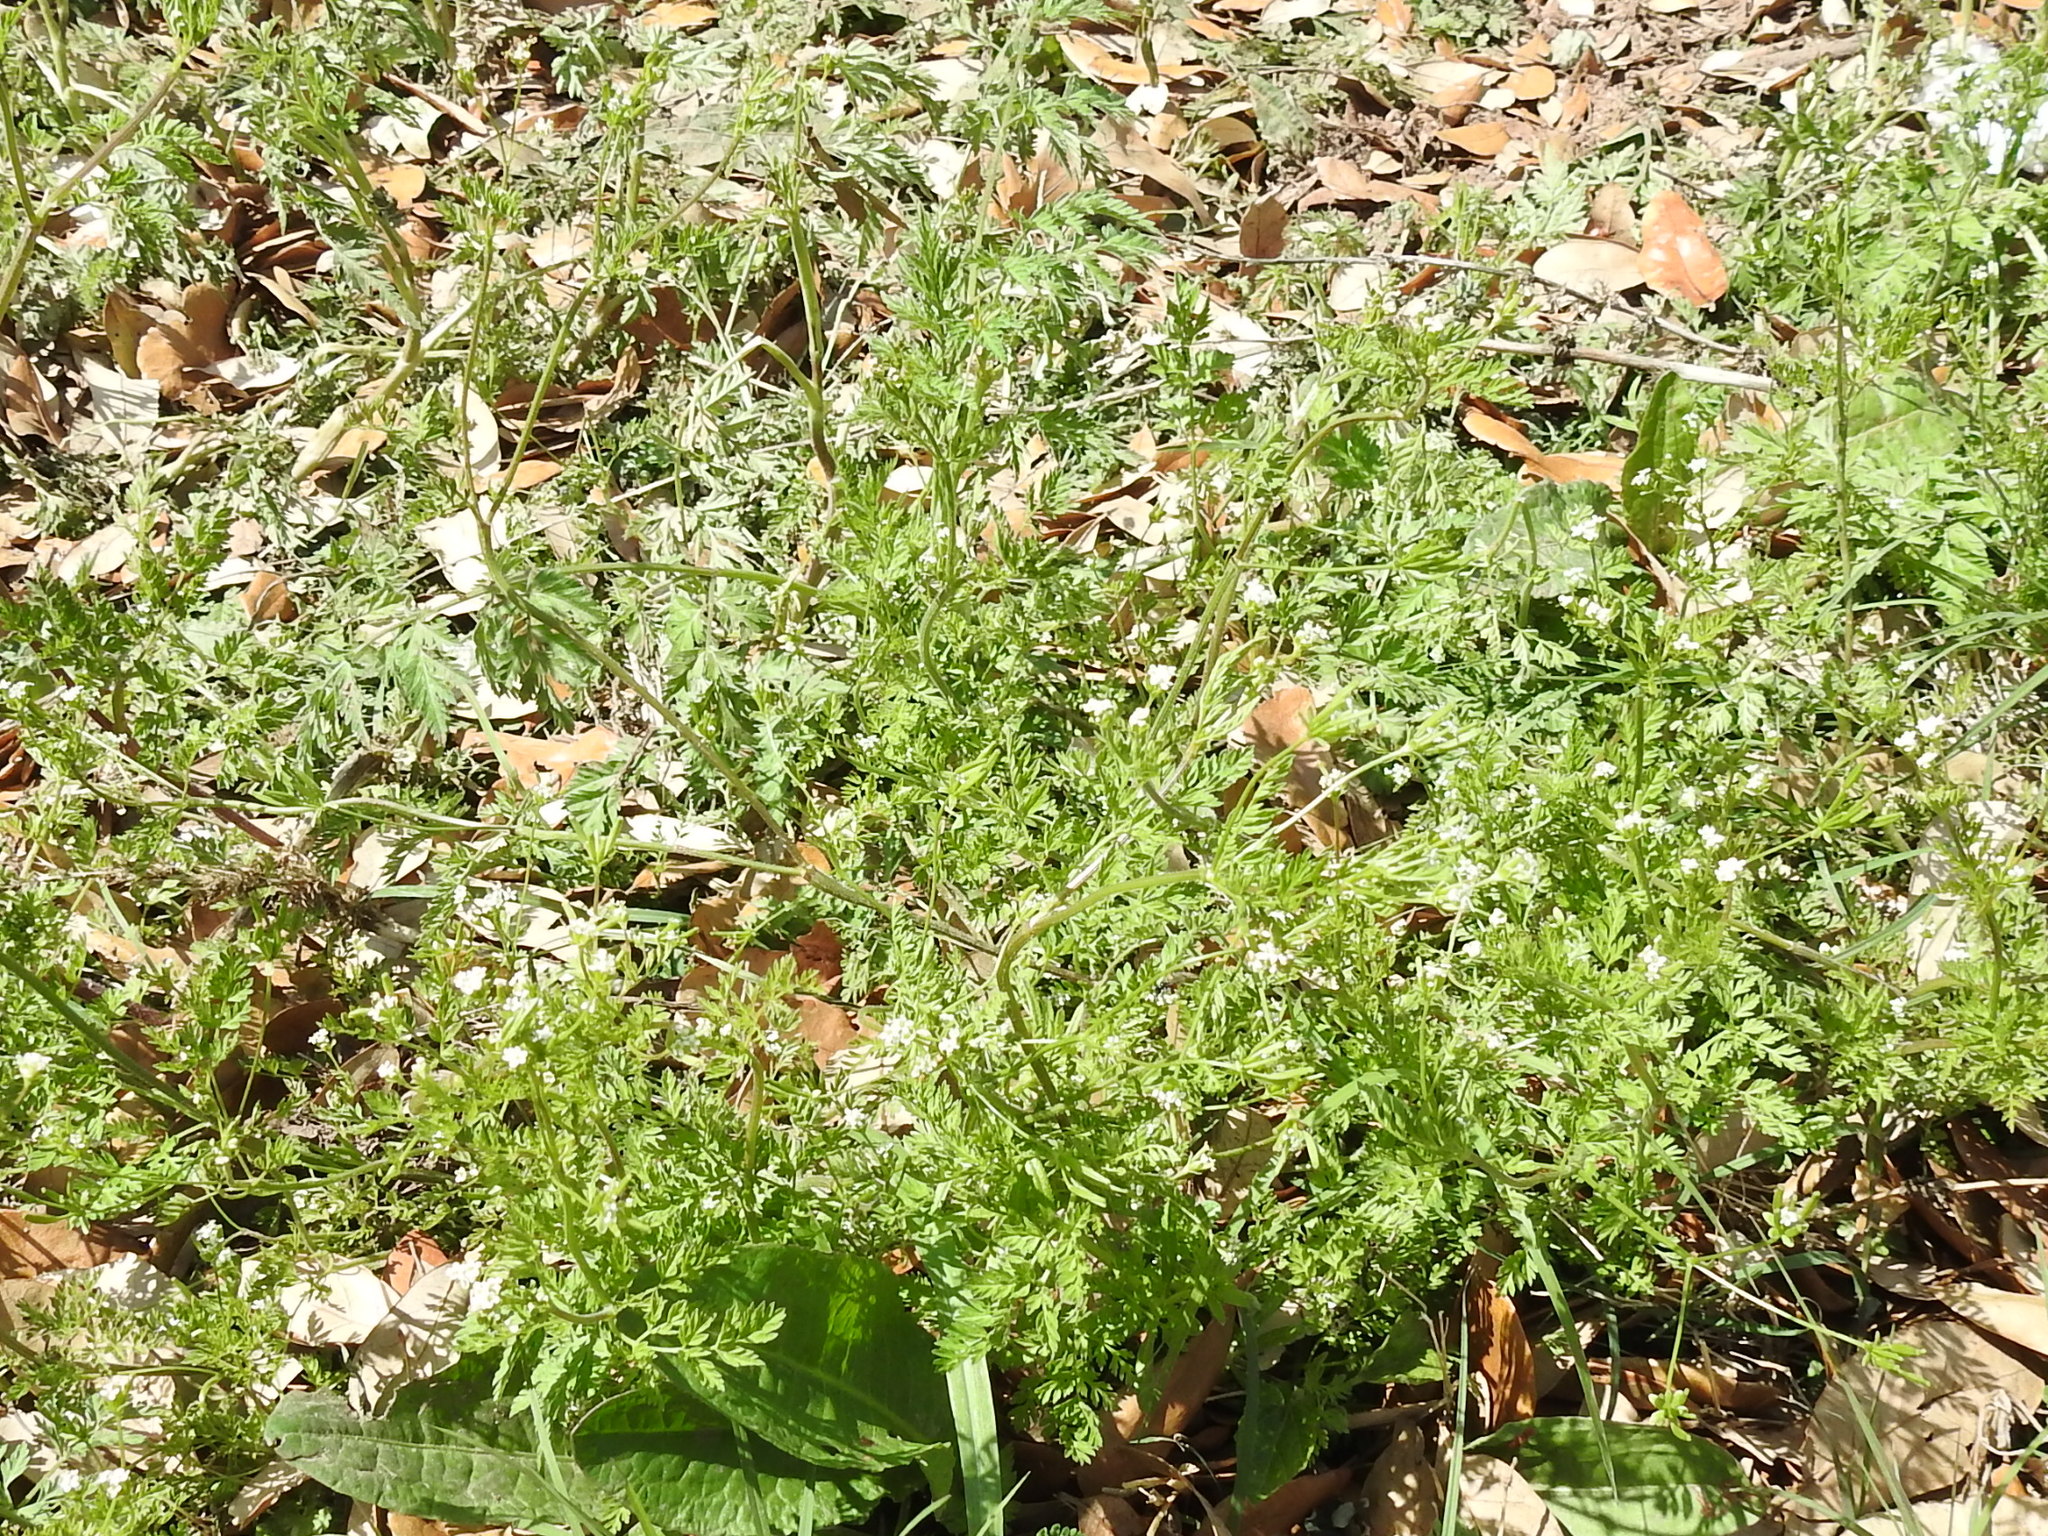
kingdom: Plantae
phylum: Tracheophyta
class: Magnoliopsida
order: Apiales
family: Apiaceae
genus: Chaerophyllum
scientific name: Chaerophyllum tainturieri
